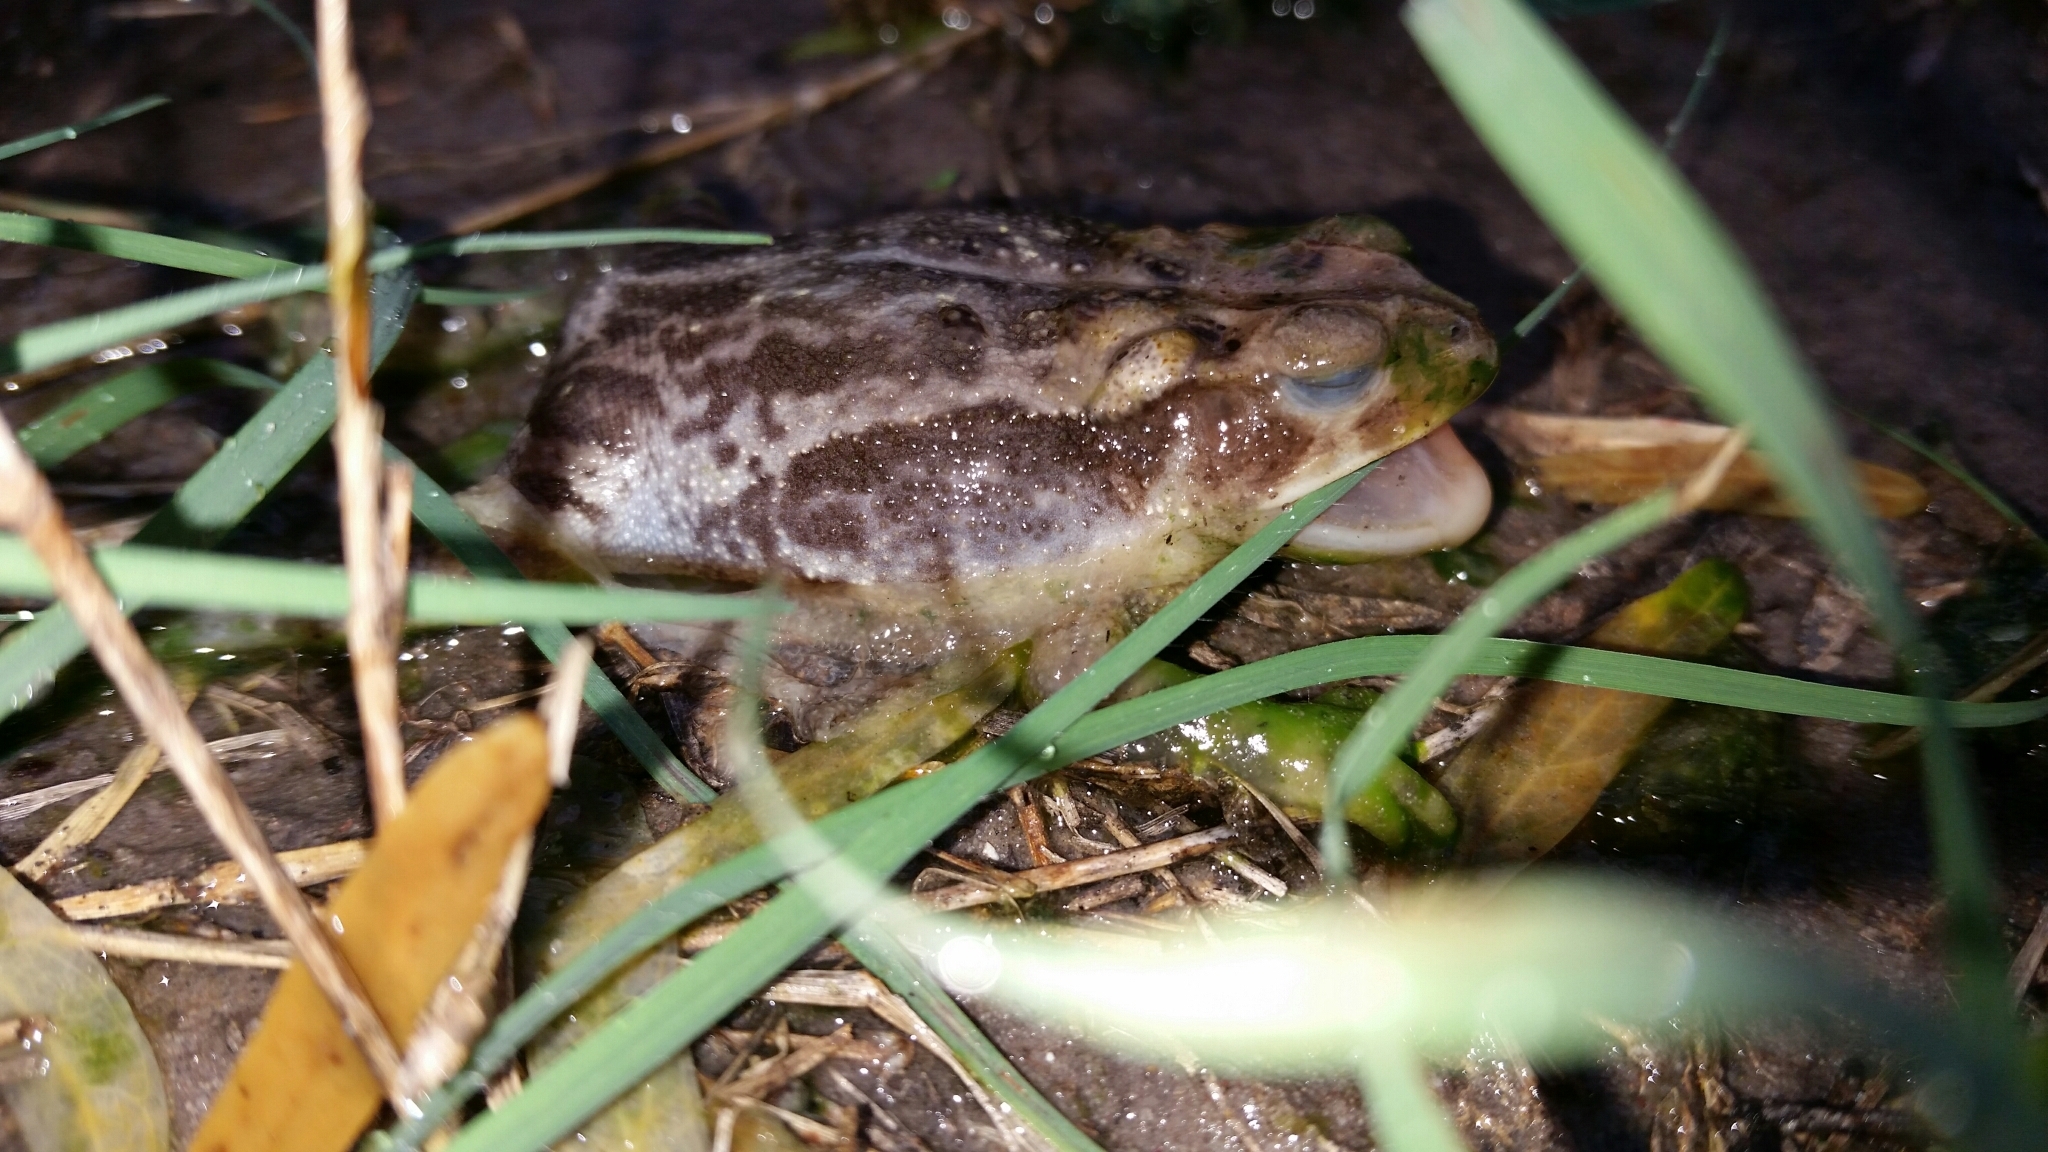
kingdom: Animalia
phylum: Chordata
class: Amphibia
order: Anura
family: Bufonidae
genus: Incilius
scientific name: Incilius nebulifer
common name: Gulf coast toad
